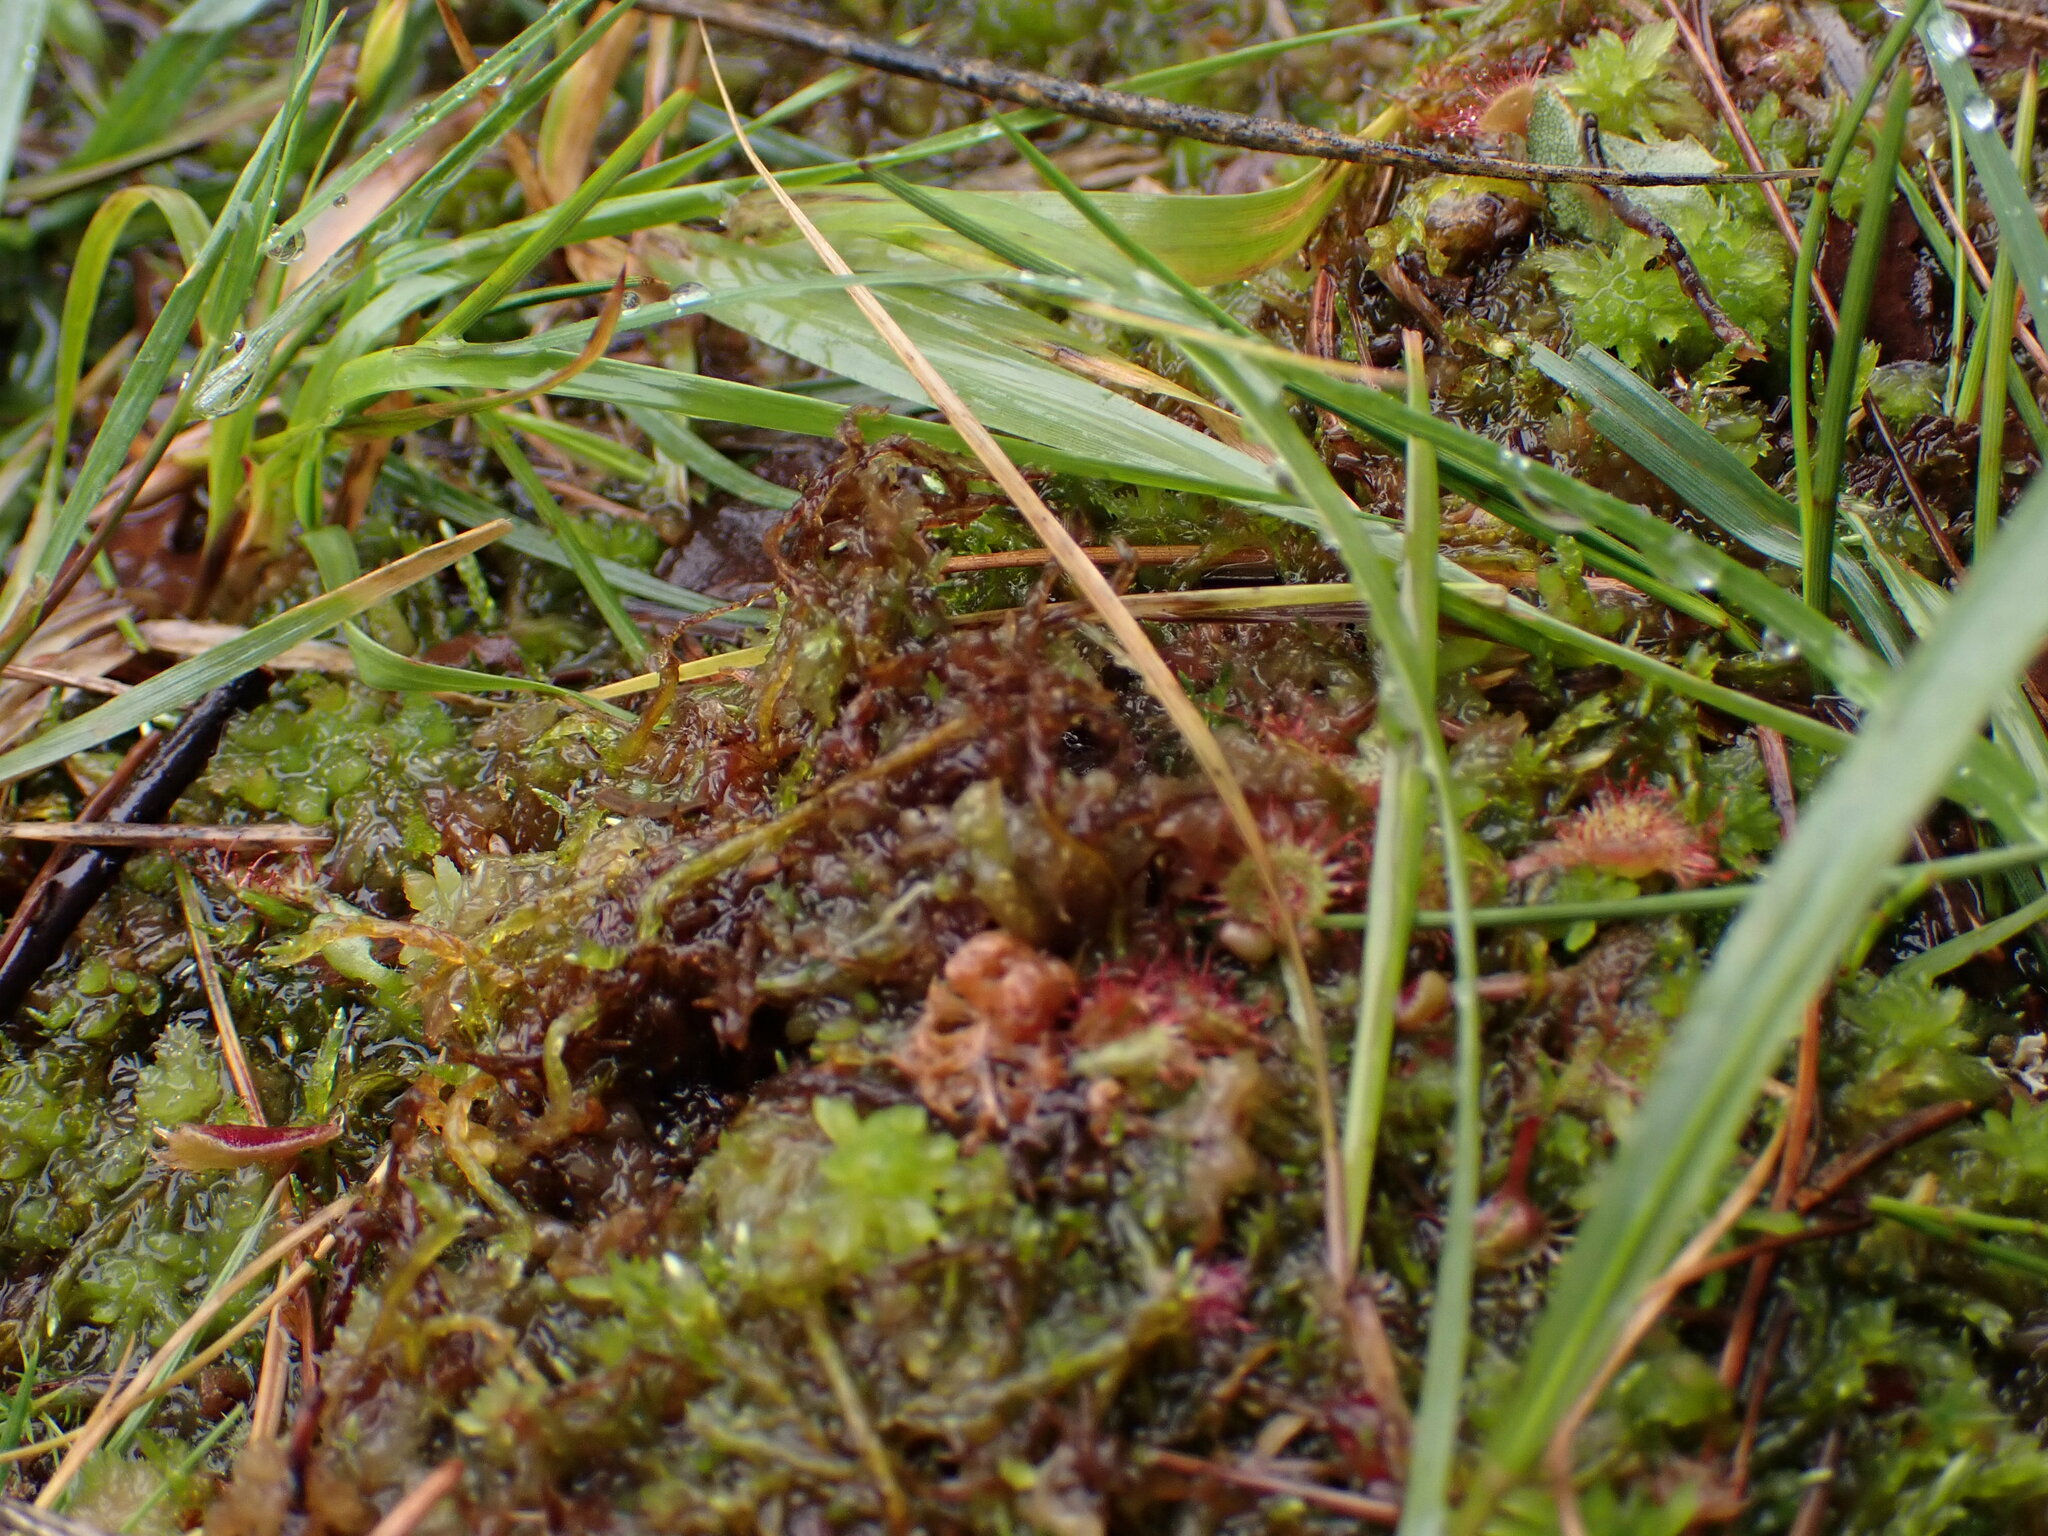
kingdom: Plantae
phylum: Tracheophyta
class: Magnoliopsida
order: Caryophyllales
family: Droseraceae
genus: Drosera
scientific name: Drosera rotundifolia
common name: Round-leaved sundew
